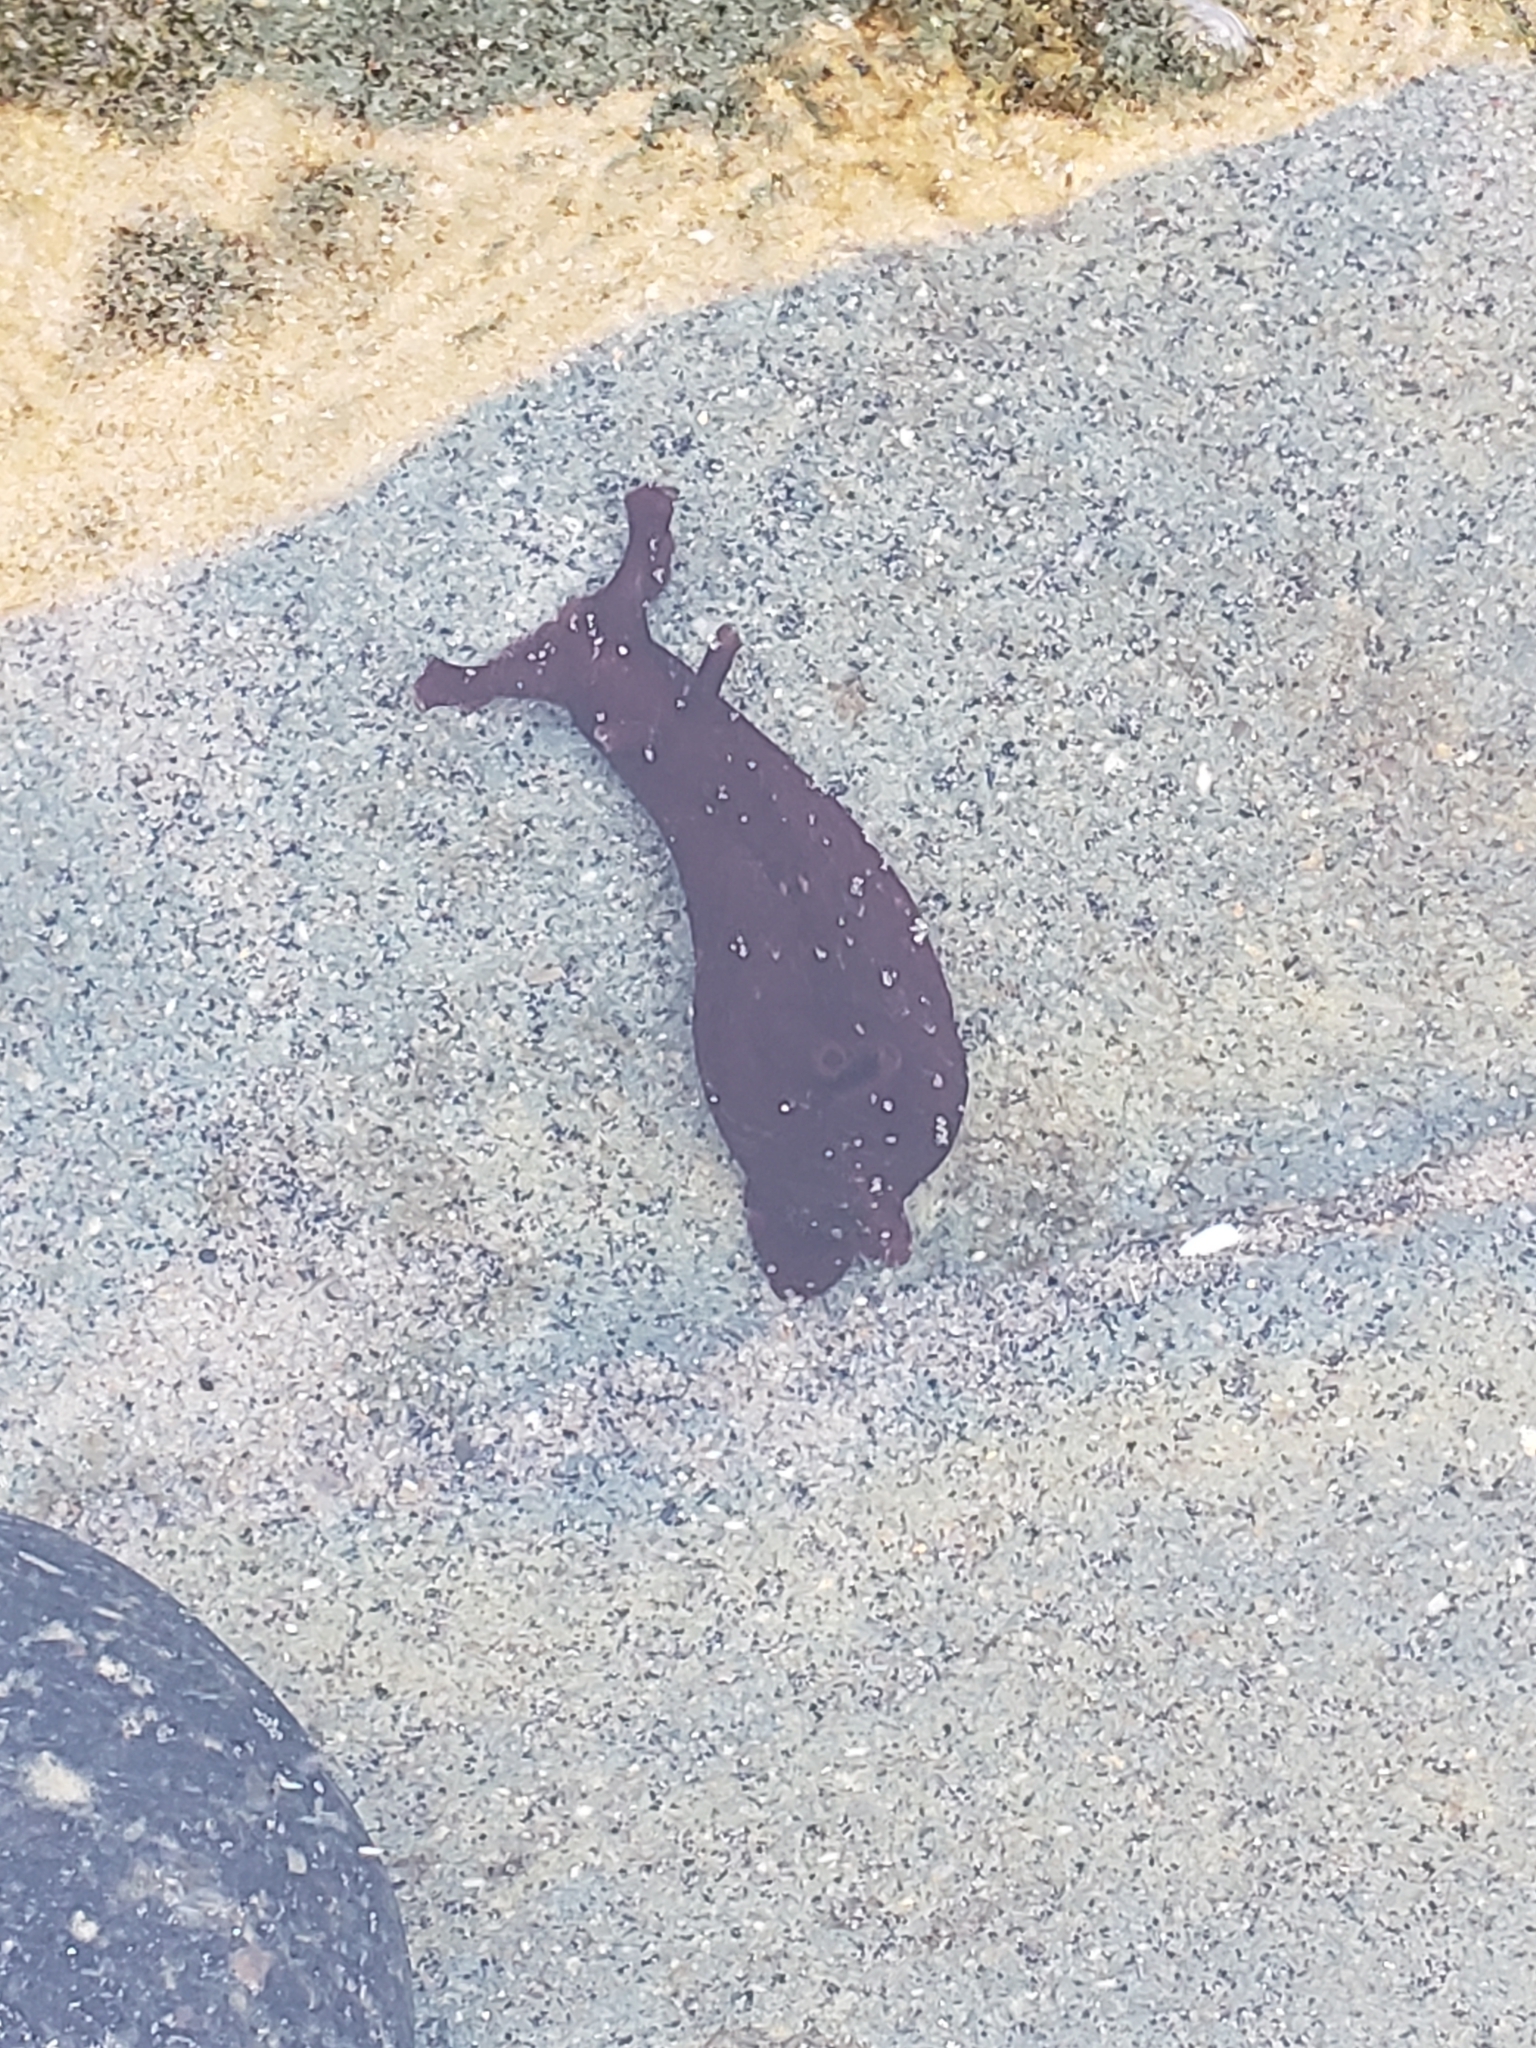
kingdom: Animalia
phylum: Mollusca
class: Gastropoda
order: Aplysiida
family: Aplysiidae
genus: Aplysia
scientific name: Aplysia californica
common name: California seahare
